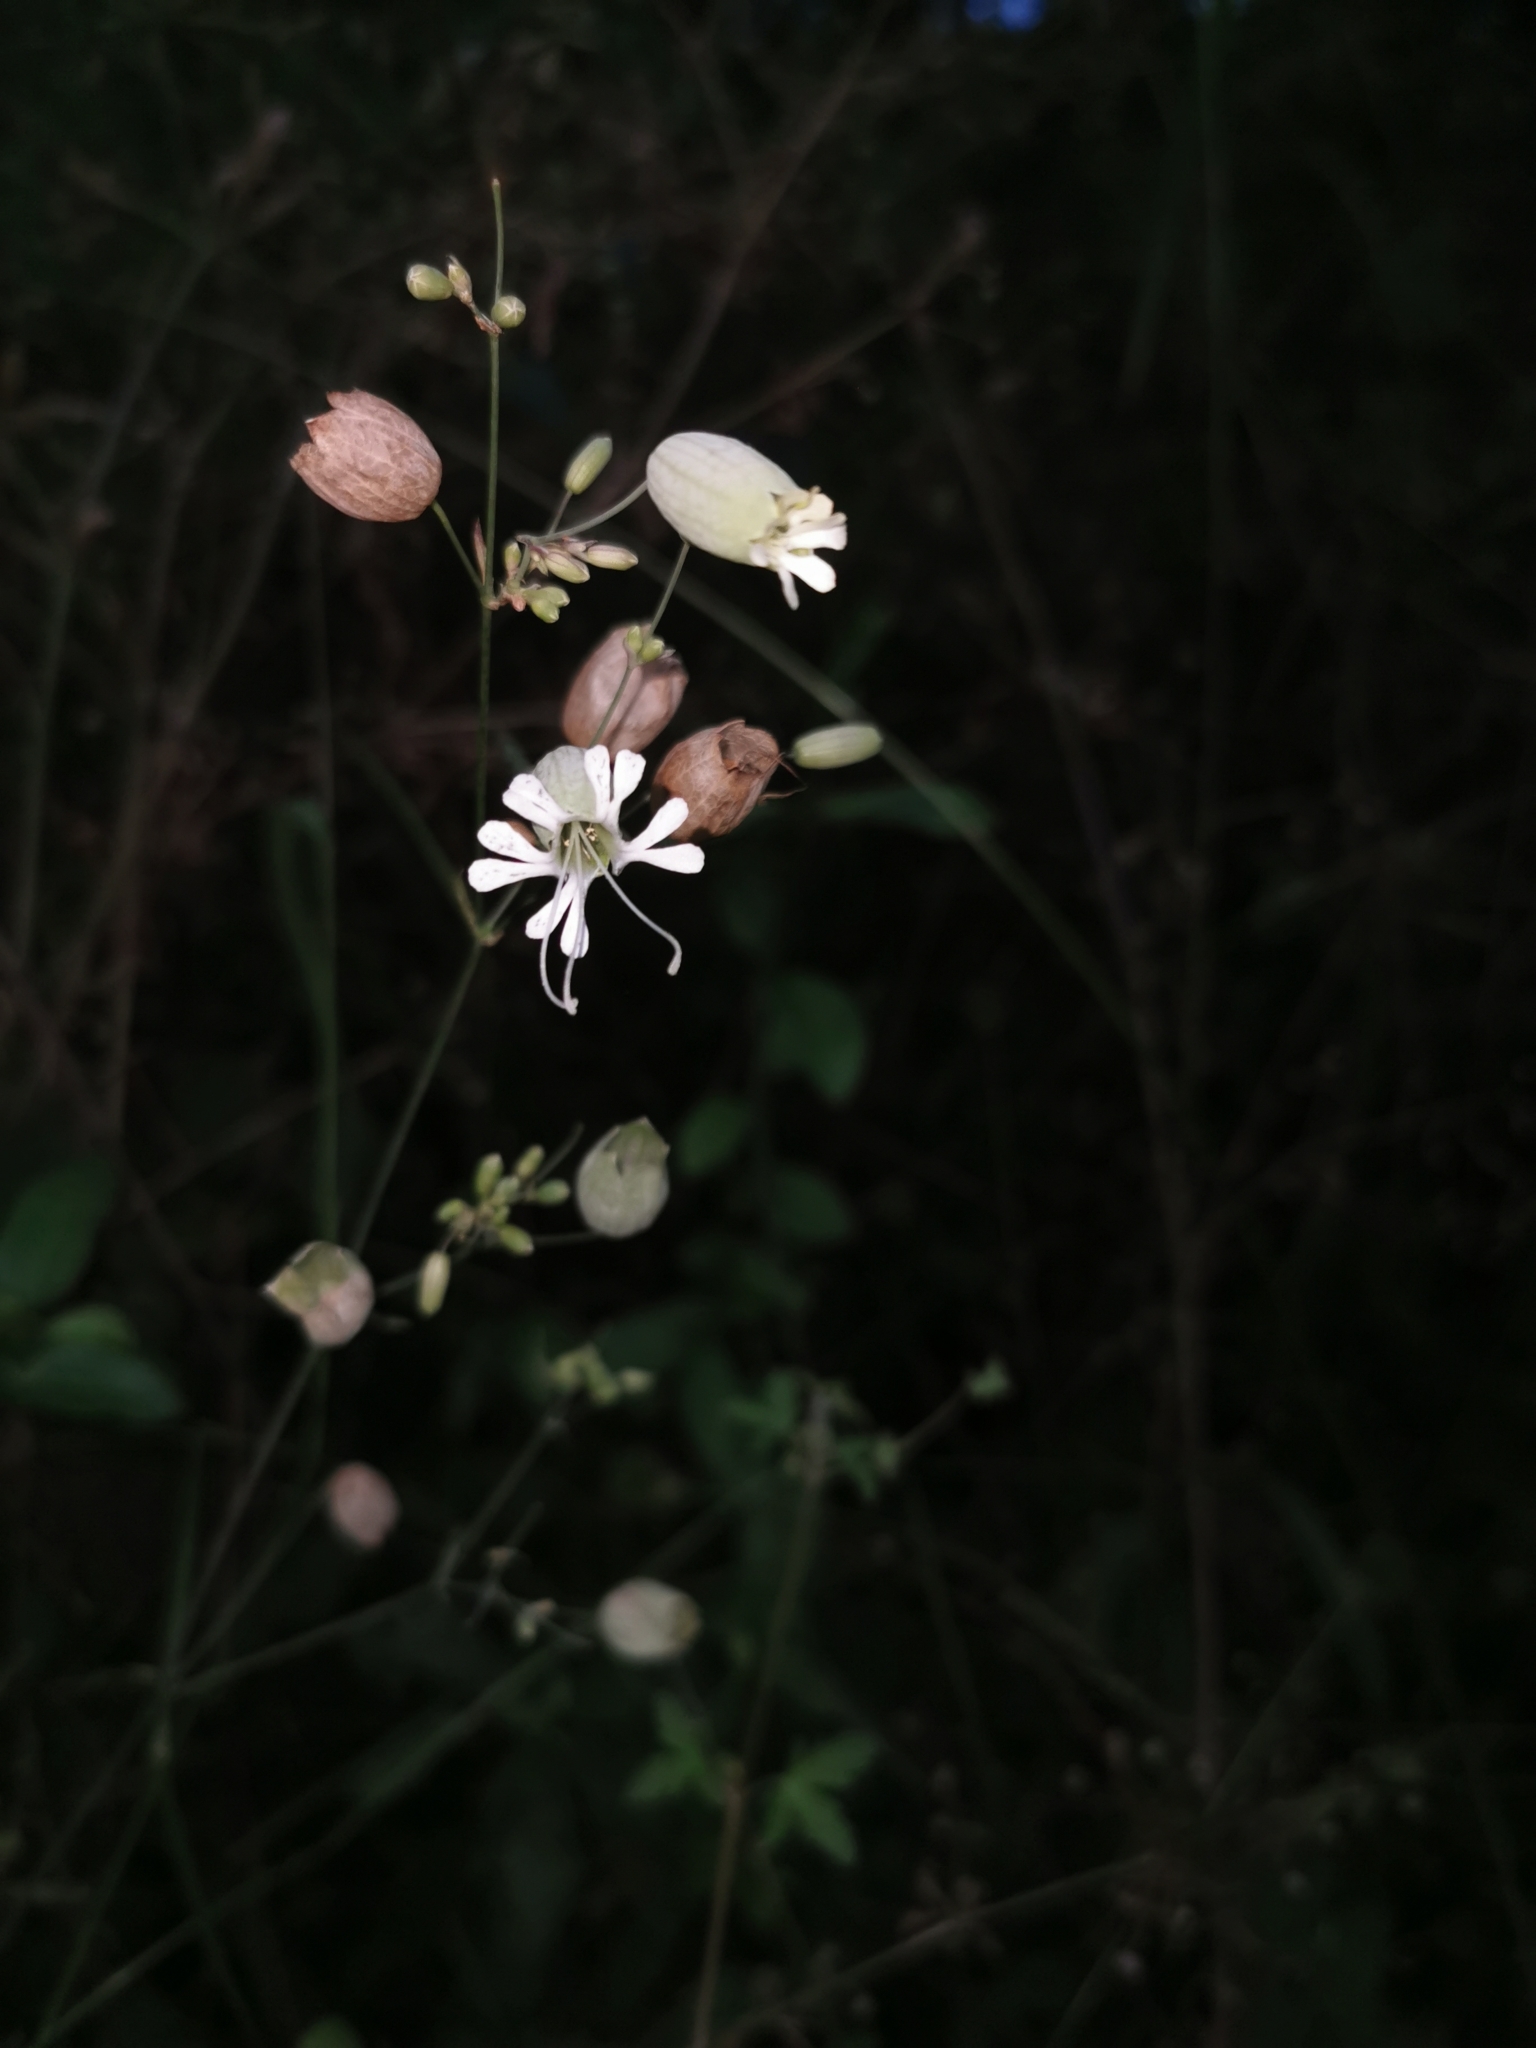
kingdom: Plantae
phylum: Tracheophyta
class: Magnoliopsida
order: Caryophyllales
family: Caryophyllaceae
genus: Silene
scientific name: Silene vulgaris
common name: Bladder campion
